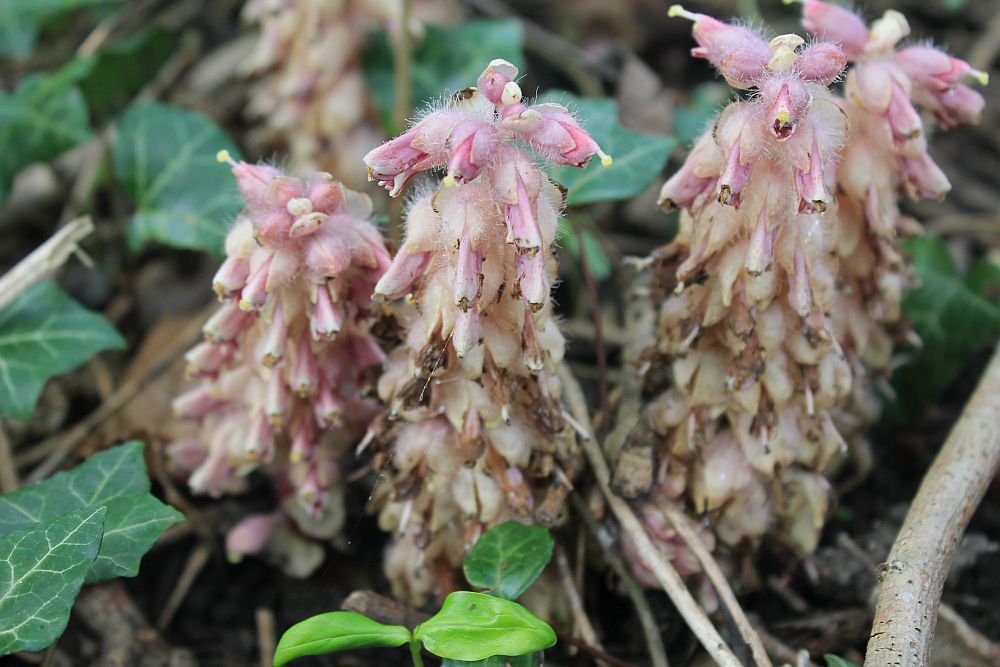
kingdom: Plantae
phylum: Tracheophyta
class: Magnoliopsida
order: Lamiales
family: Orobanchaceae
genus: Lathraea
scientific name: Lathraea squamaria
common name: Toothwort
